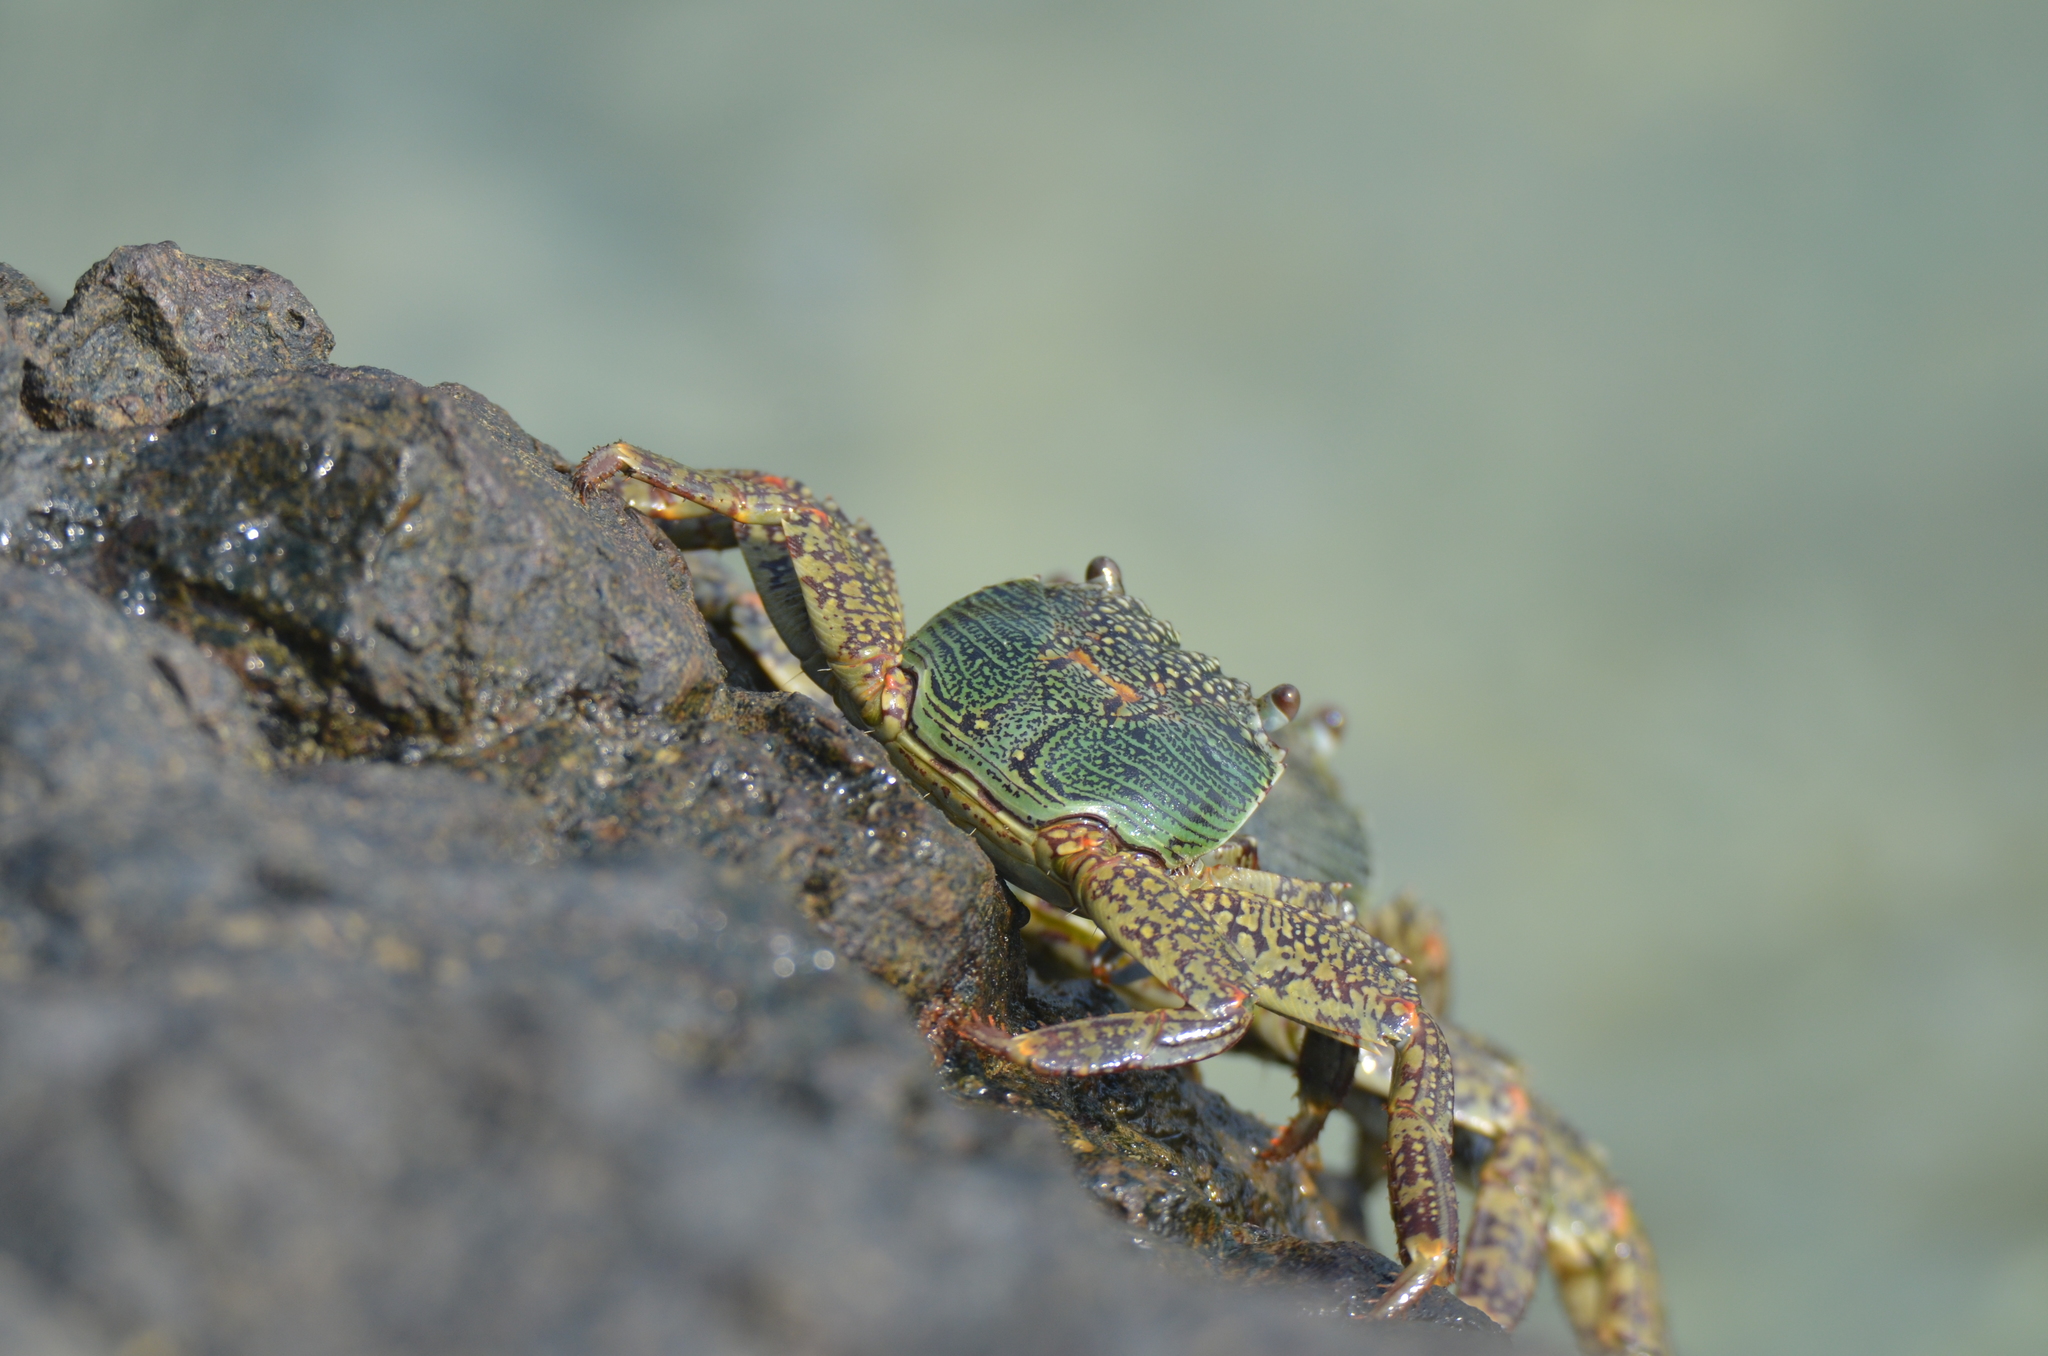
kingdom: Animalia
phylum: Arthropoda
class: Malacostraca
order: Decapoda
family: Grapsidae
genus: Grapsus
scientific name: Grapsus albolineatus
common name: Mottled lightfoot crab
